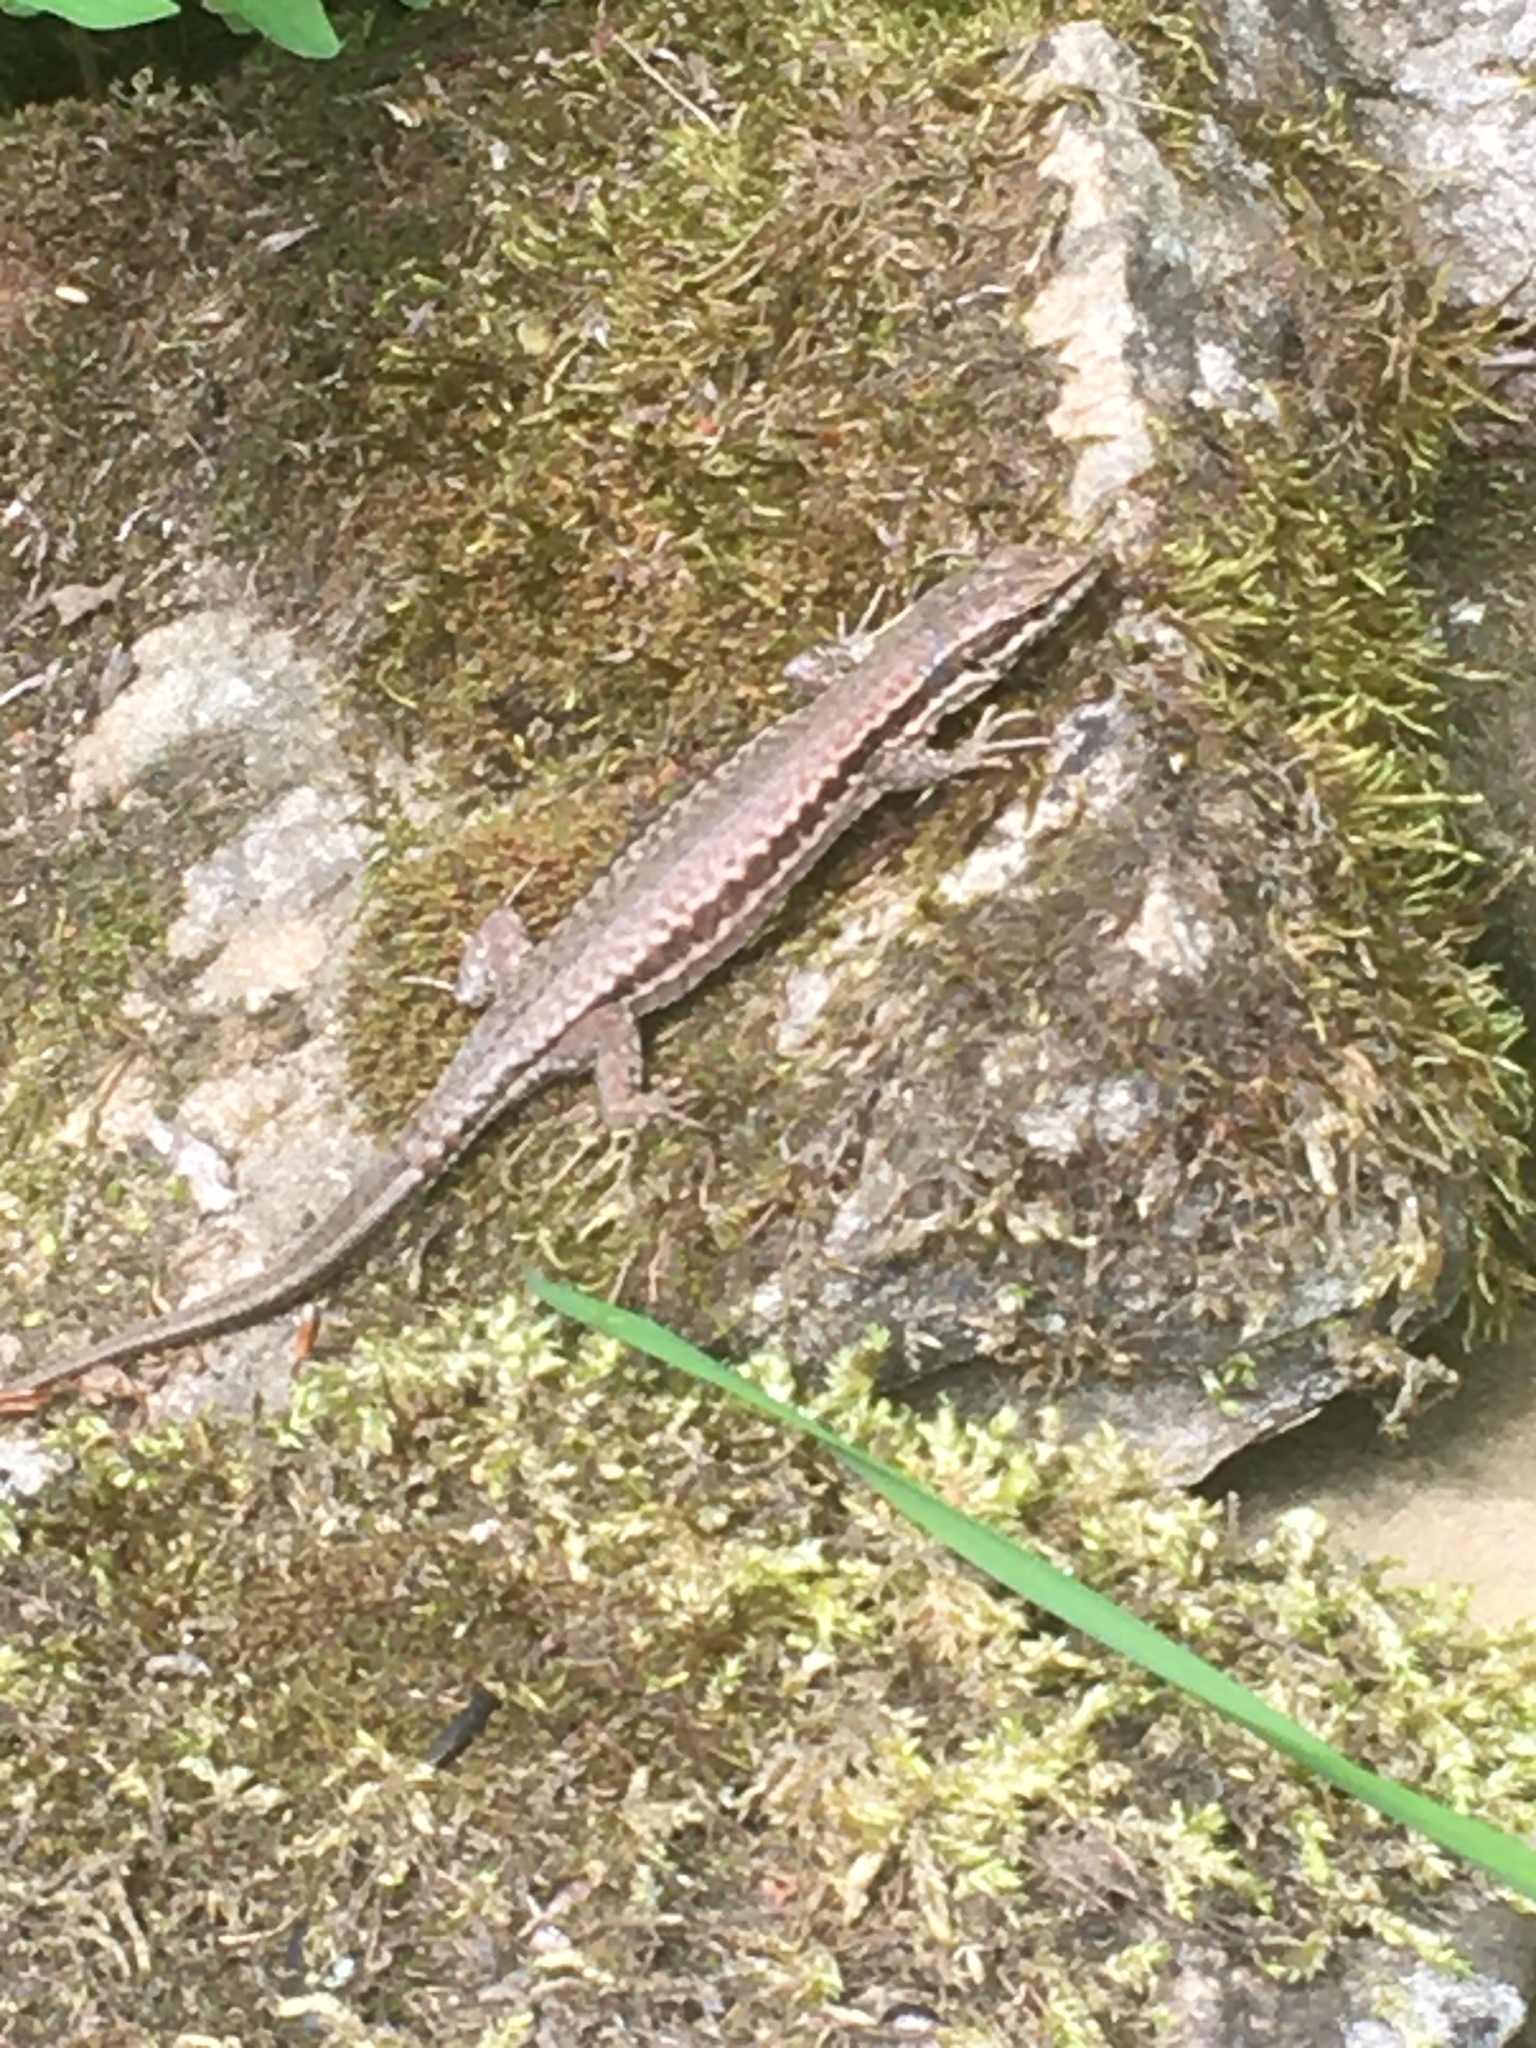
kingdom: Animalia
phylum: Chordata
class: Squamata
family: Lacertidae
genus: Podarcis
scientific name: Podarcis muralis
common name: Common wall lizard
